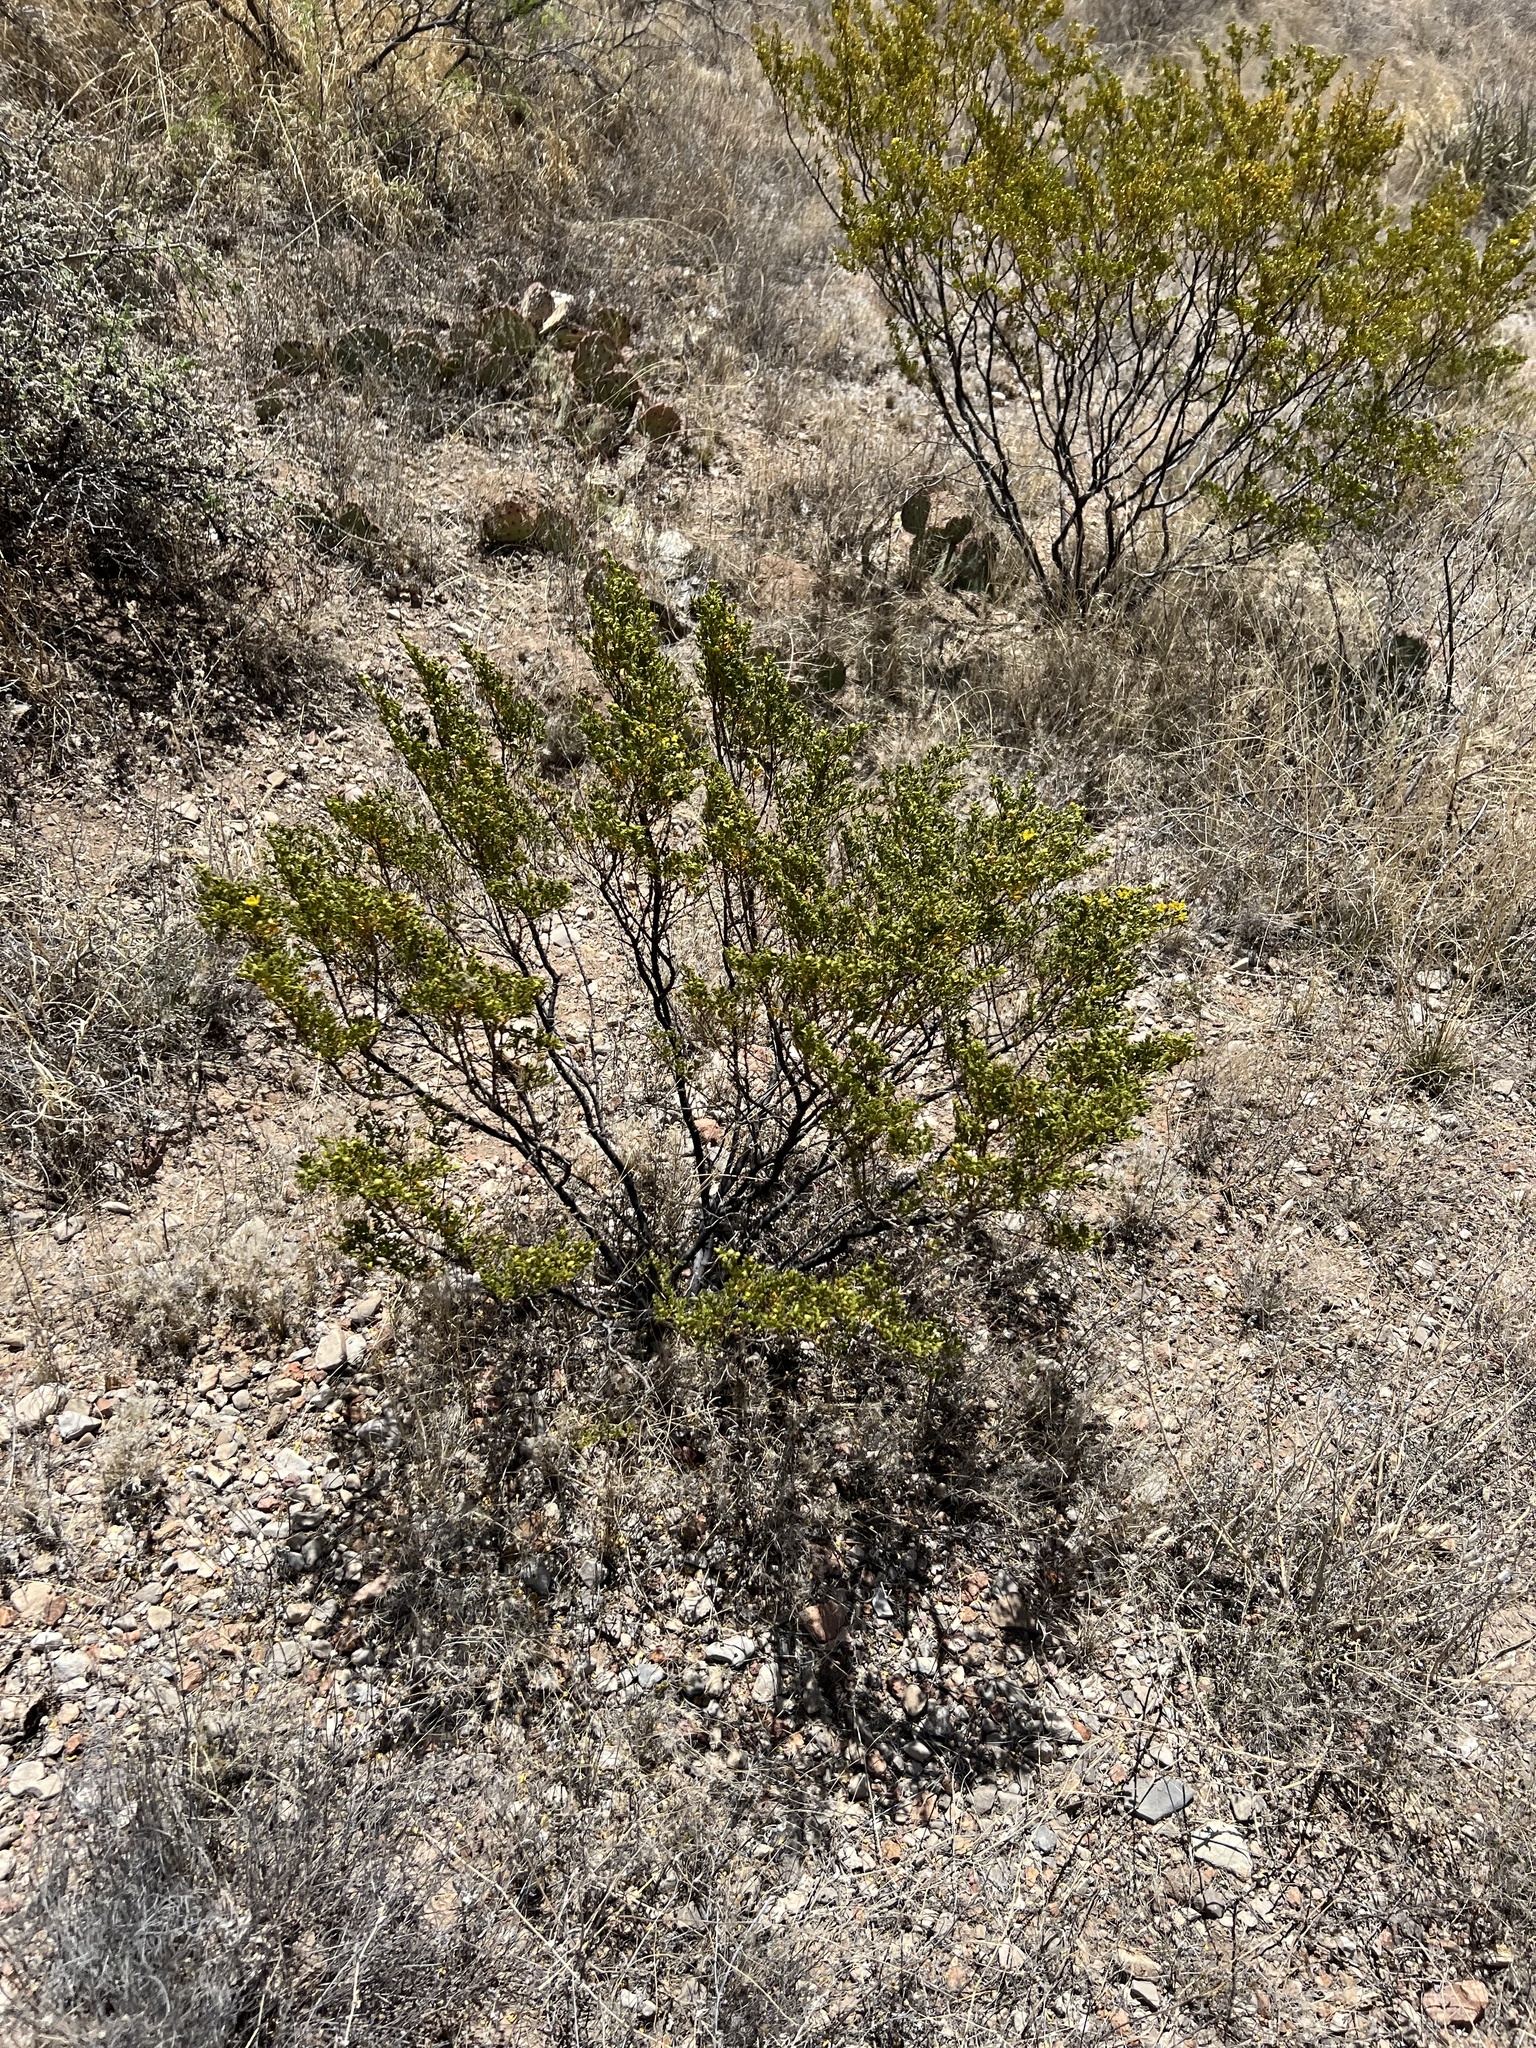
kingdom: Plantae
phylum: Tracheophyta
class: Magnoliopsida
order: Zygophyllales
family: Zygophyllaceae
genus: Larrea
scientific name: Larrea tridentata
